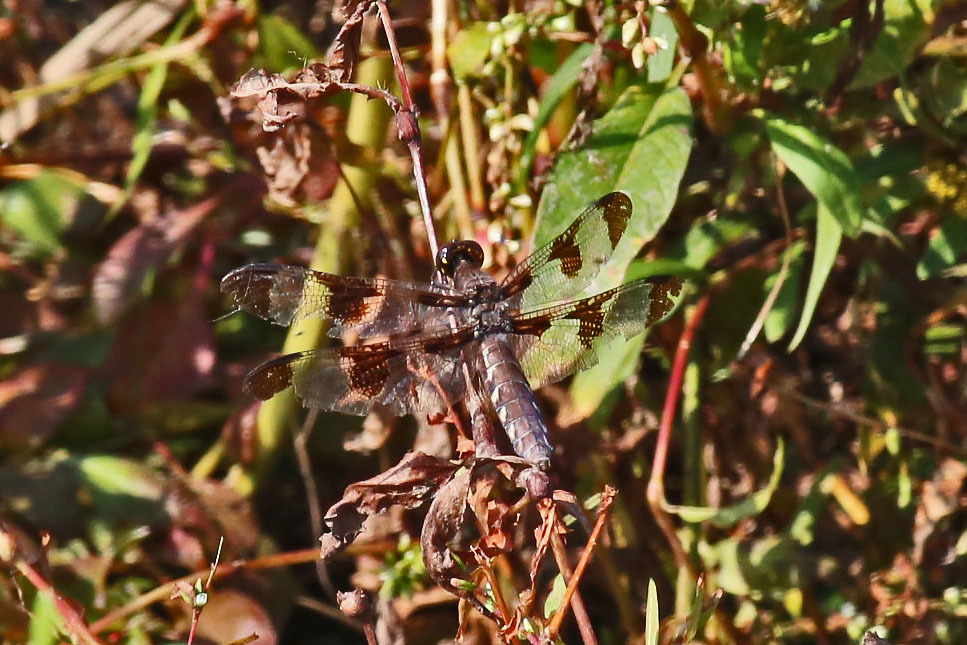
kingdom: Animalia
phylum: Arthropoda
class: Insecta
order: Odonata
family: Libellulidae
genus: Plathemis
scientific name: Plathemis lydia
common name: Common whitetail
